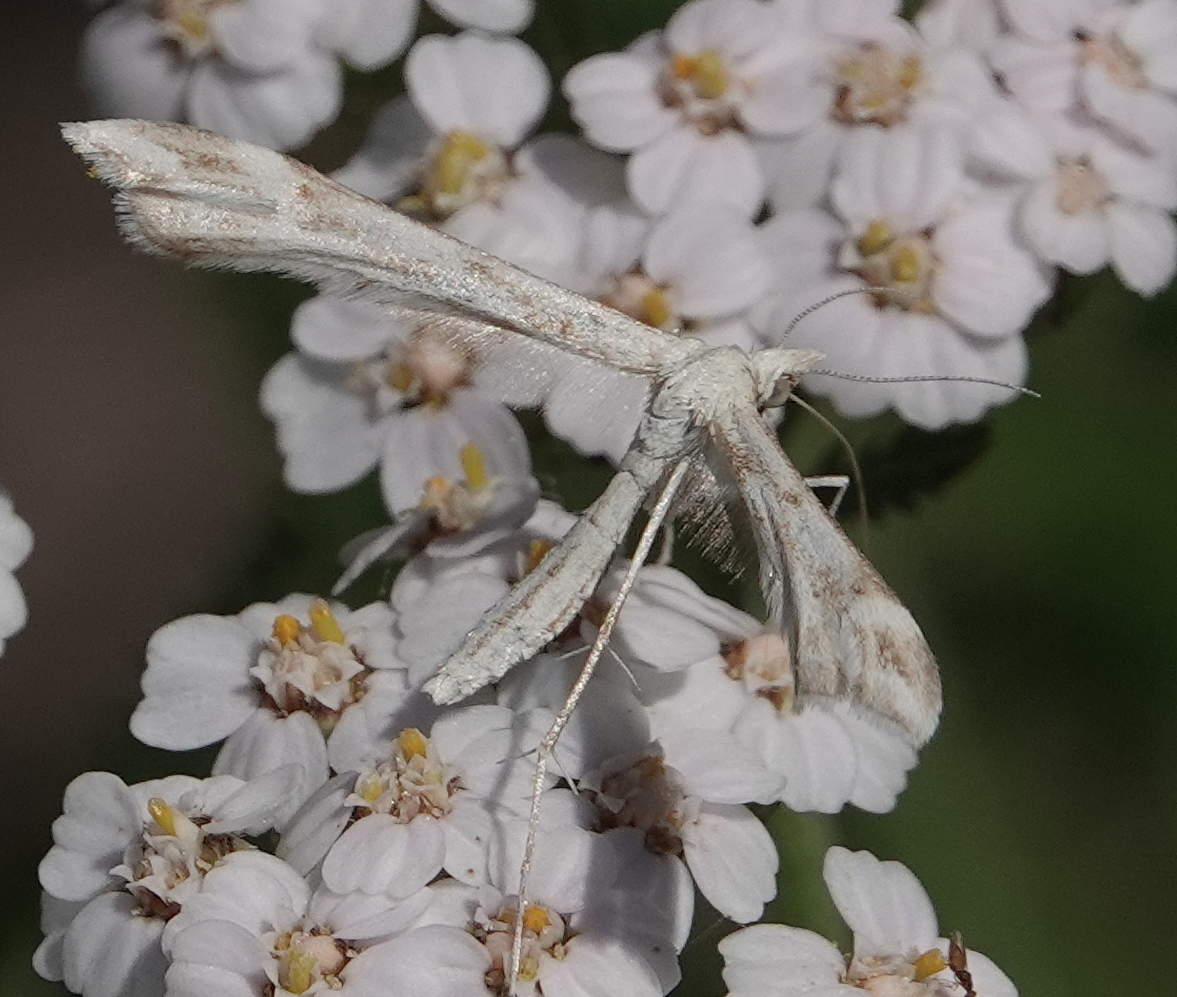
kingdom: Animalia
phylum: Arthropoda
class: Insecta
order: Lepidoptera
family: Pterophoridae
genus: Gillmeria
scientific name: Gillmeria pallidactyla
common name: Yarrow plume
